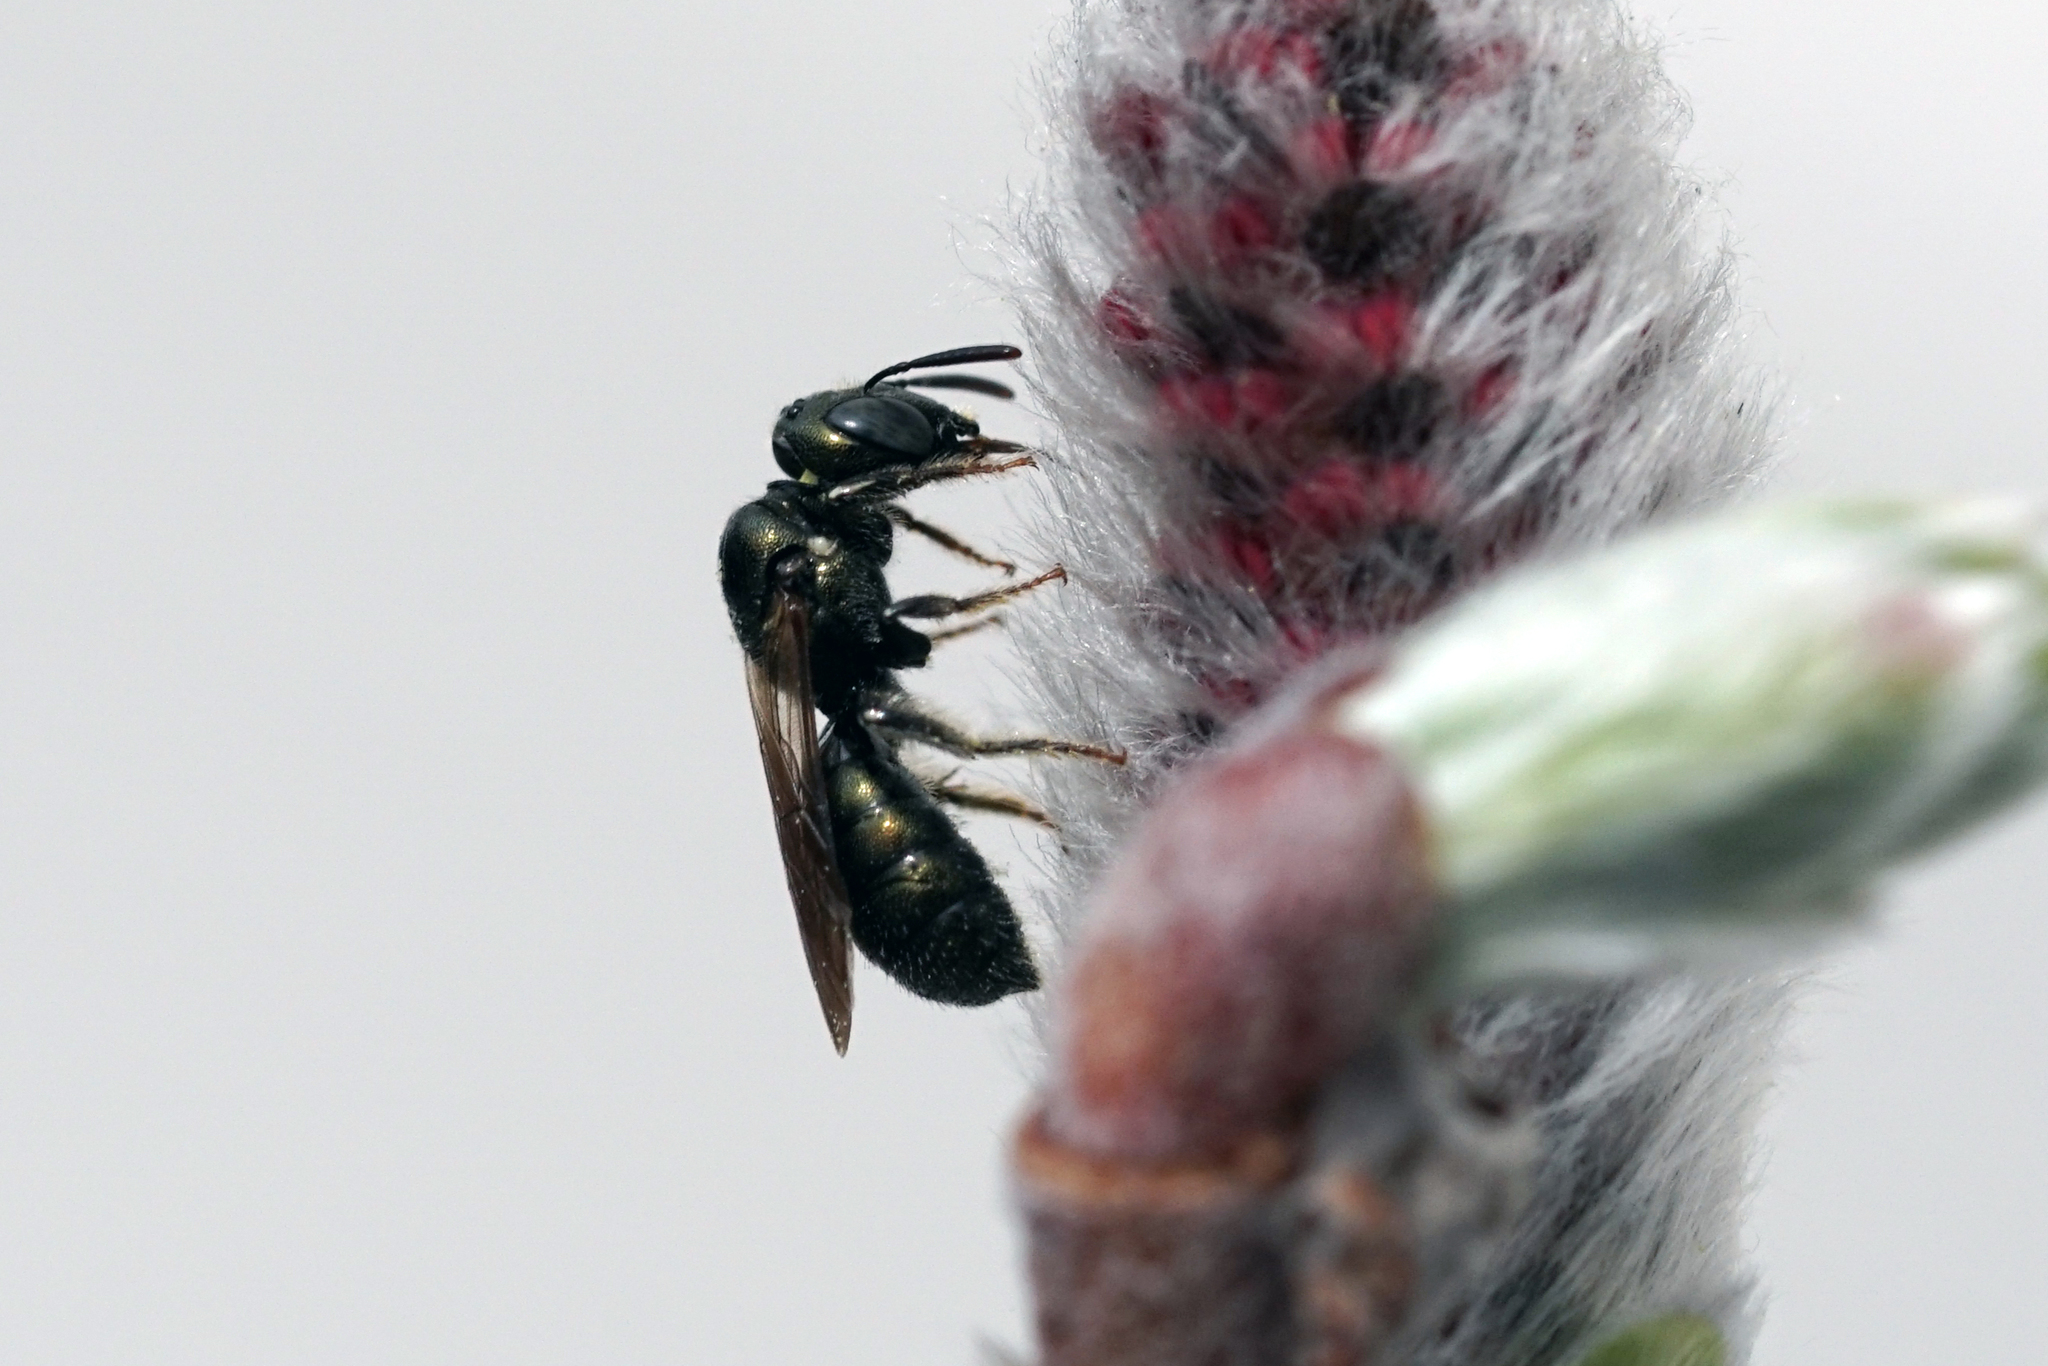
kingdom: Animalia
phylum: Arthropoda
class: Insecta
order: Hymenoptera
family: Apidae
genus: Ceratina
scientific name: Ceratina strenua
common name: Nimble carpenter bee
